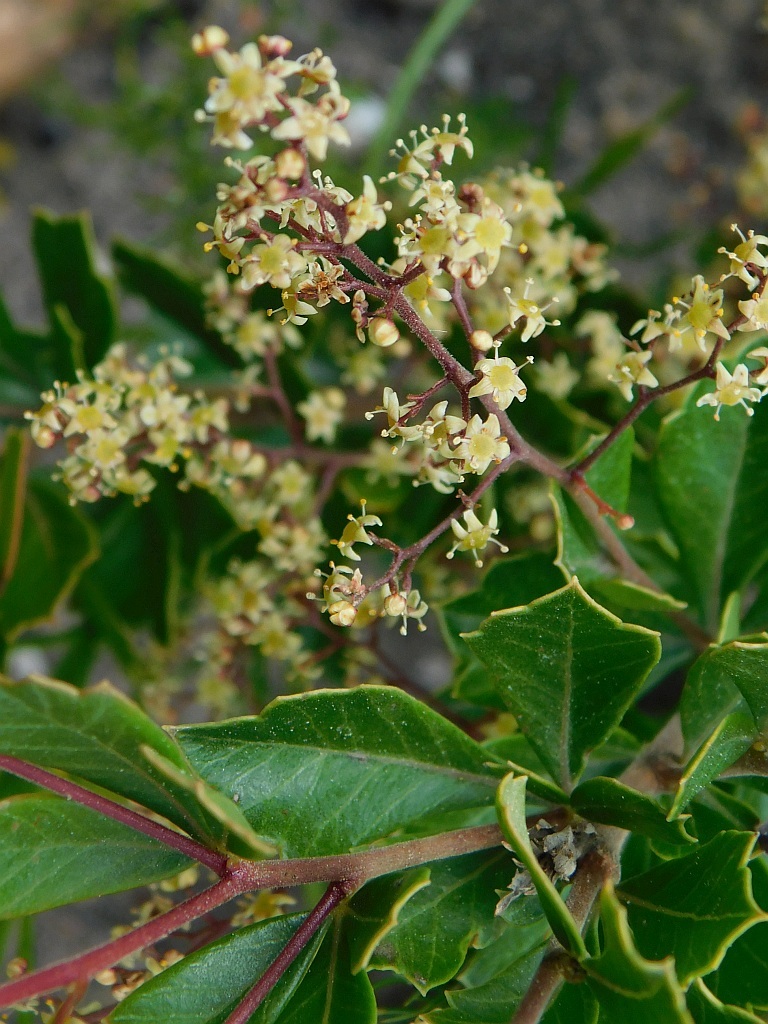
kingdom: Plantae
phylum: Tracheophyta
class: Magnoliopsida
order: Sapindales
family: Anacardiaceae
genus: Searsia
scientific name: Searsia cuneifolia
